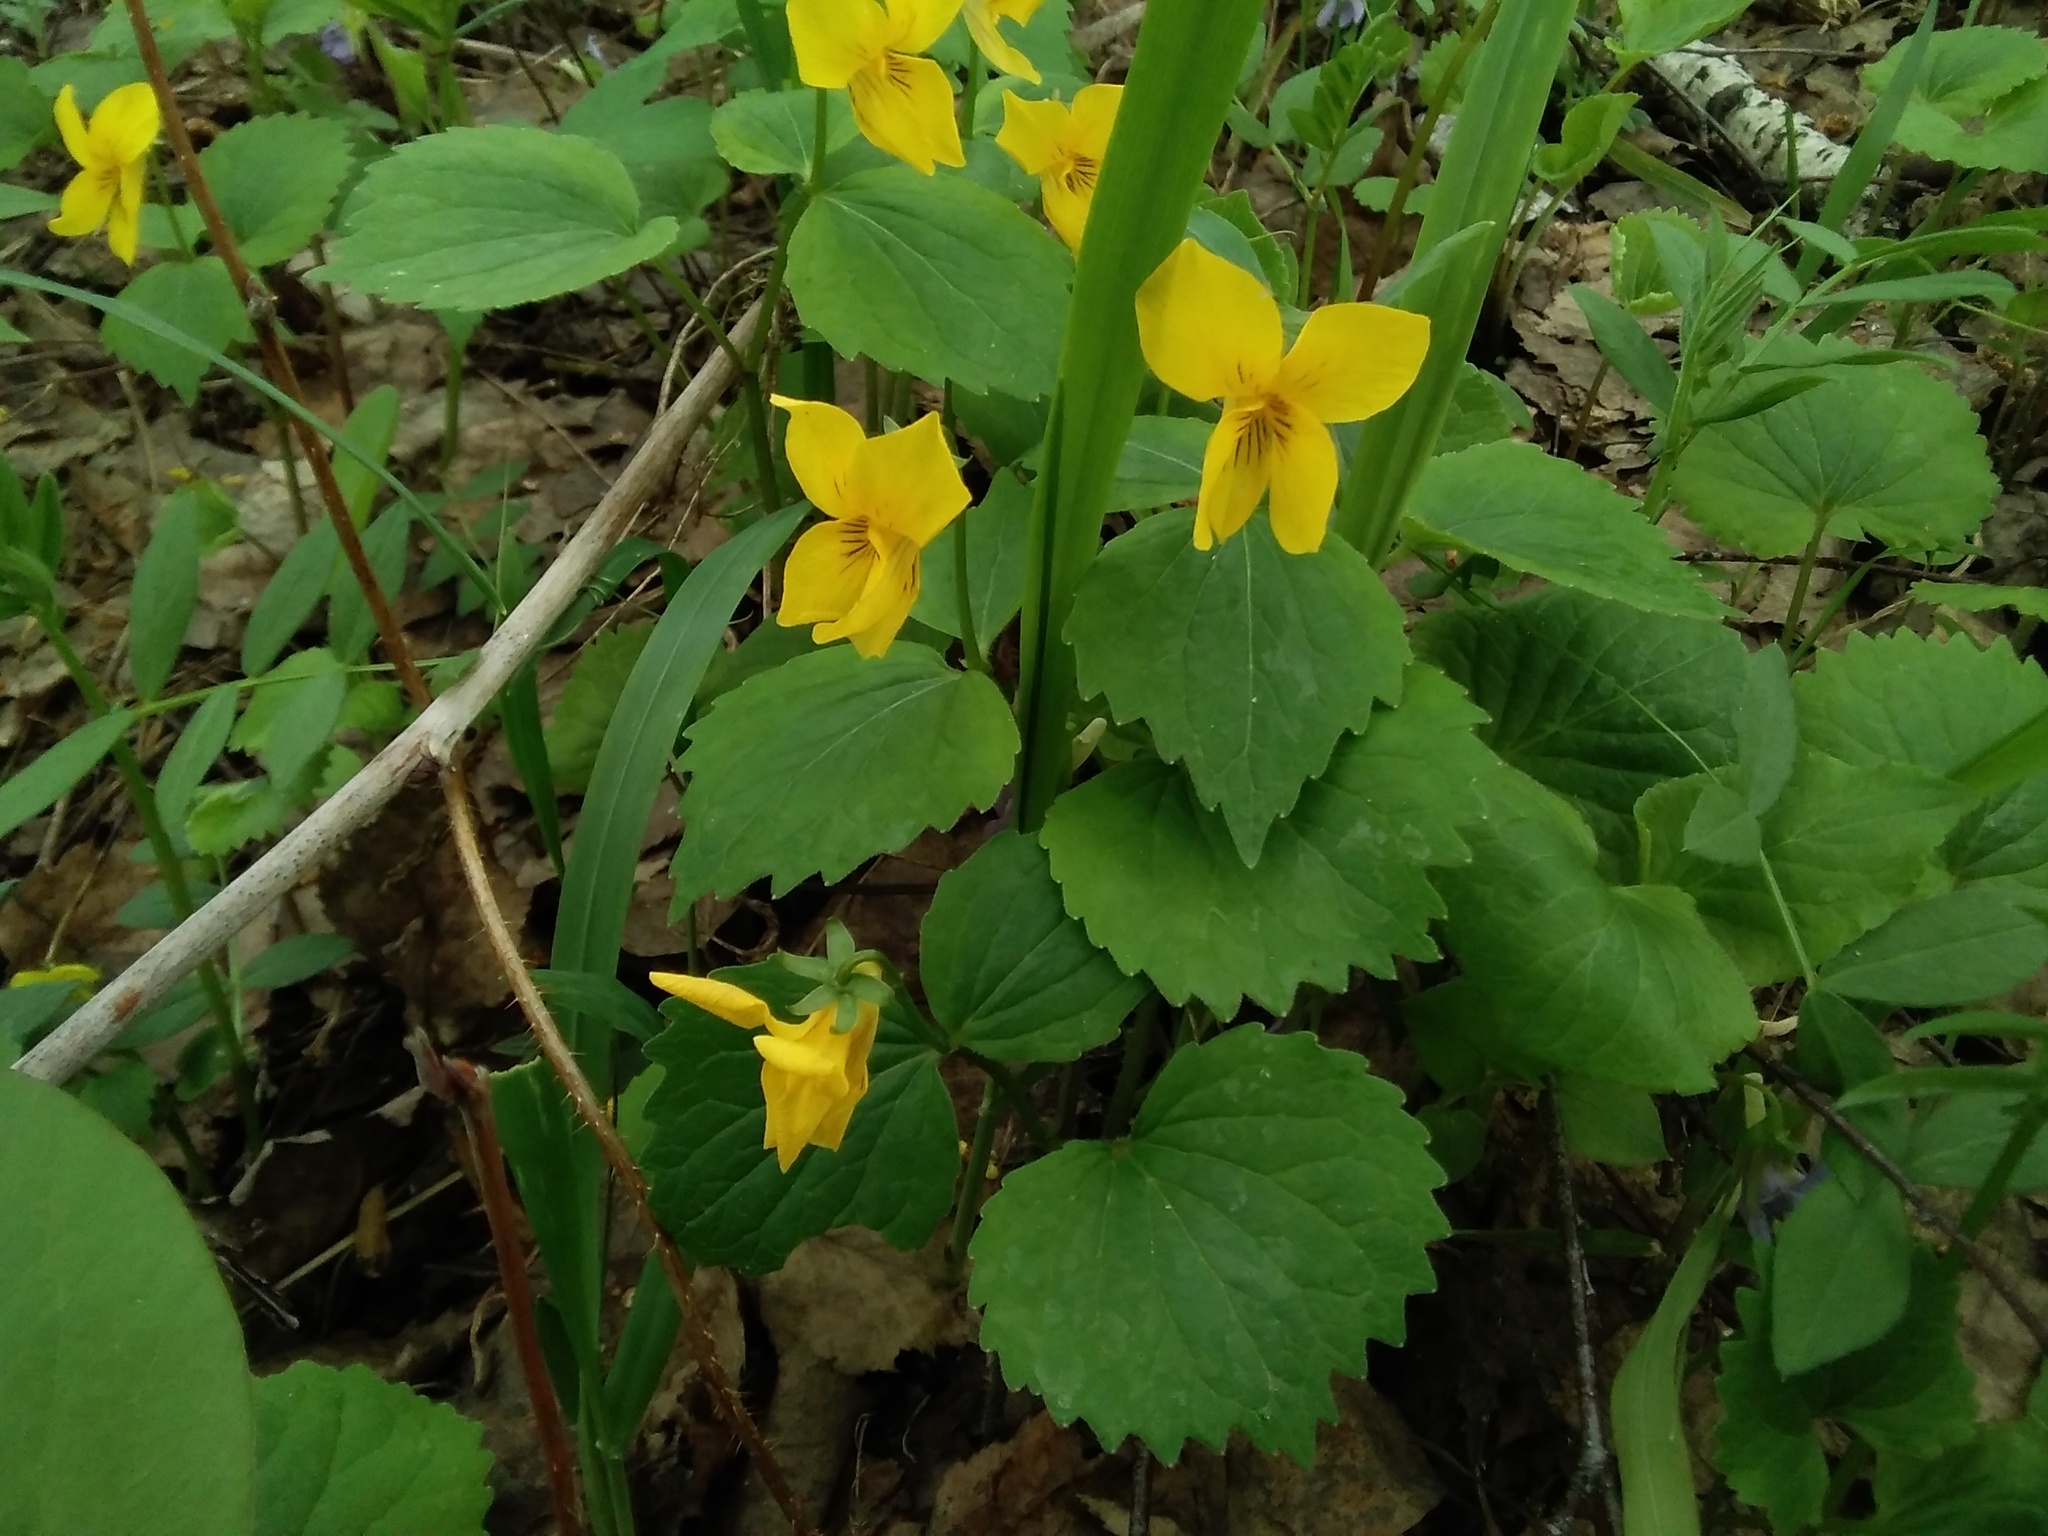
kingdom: Plantae
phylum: Tracheophyta
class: Magnoliopsida
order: Malpighiales
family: Violaceae
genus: Viola
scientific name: Viola uniflora
